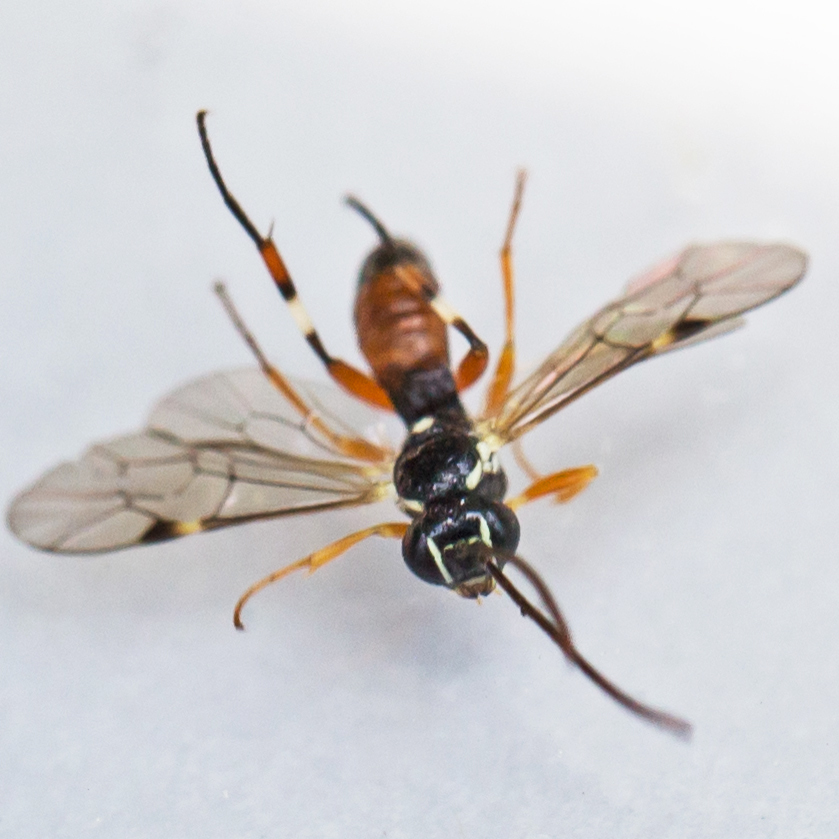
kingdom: Animalia
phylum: Arthropoda
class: Insecta
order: Hymenoptera
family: Ichneumonidae
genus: Diplazon
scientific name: Diplazon laetatorius
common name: Parasitoid wasp
